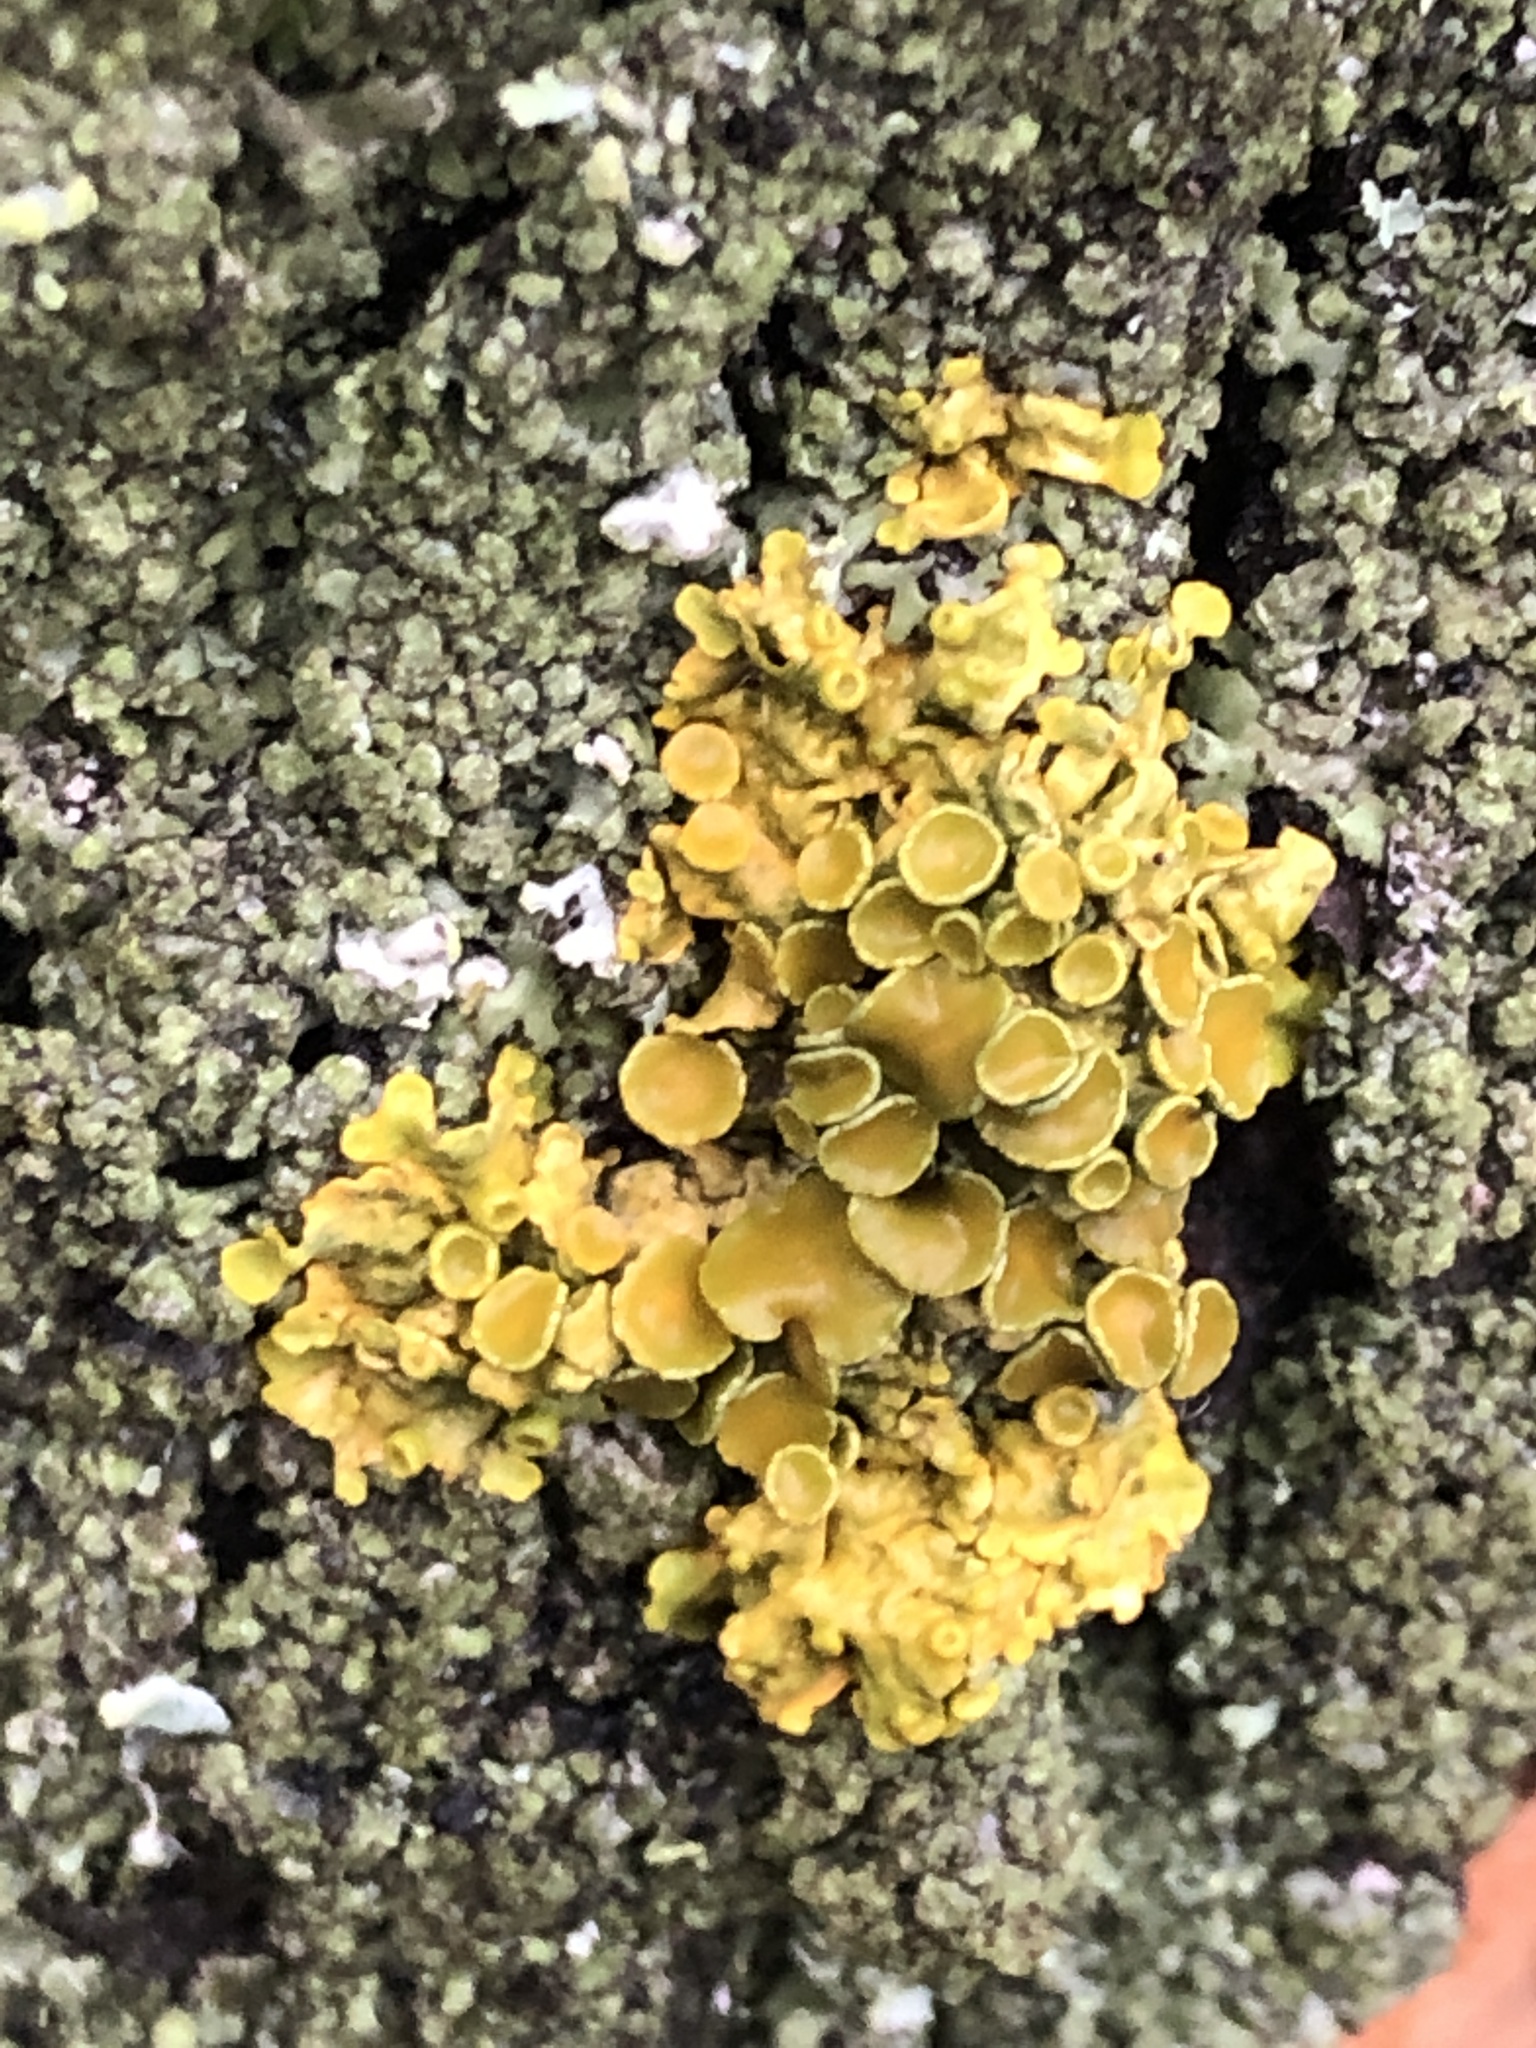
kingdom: Fungi
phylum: Ascomycota
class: Lecanoromycetes
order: Teloschistales
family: Teloschistaceae
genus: Xanthoria
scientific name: Xanthoria parietina
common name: Common orange lichen
